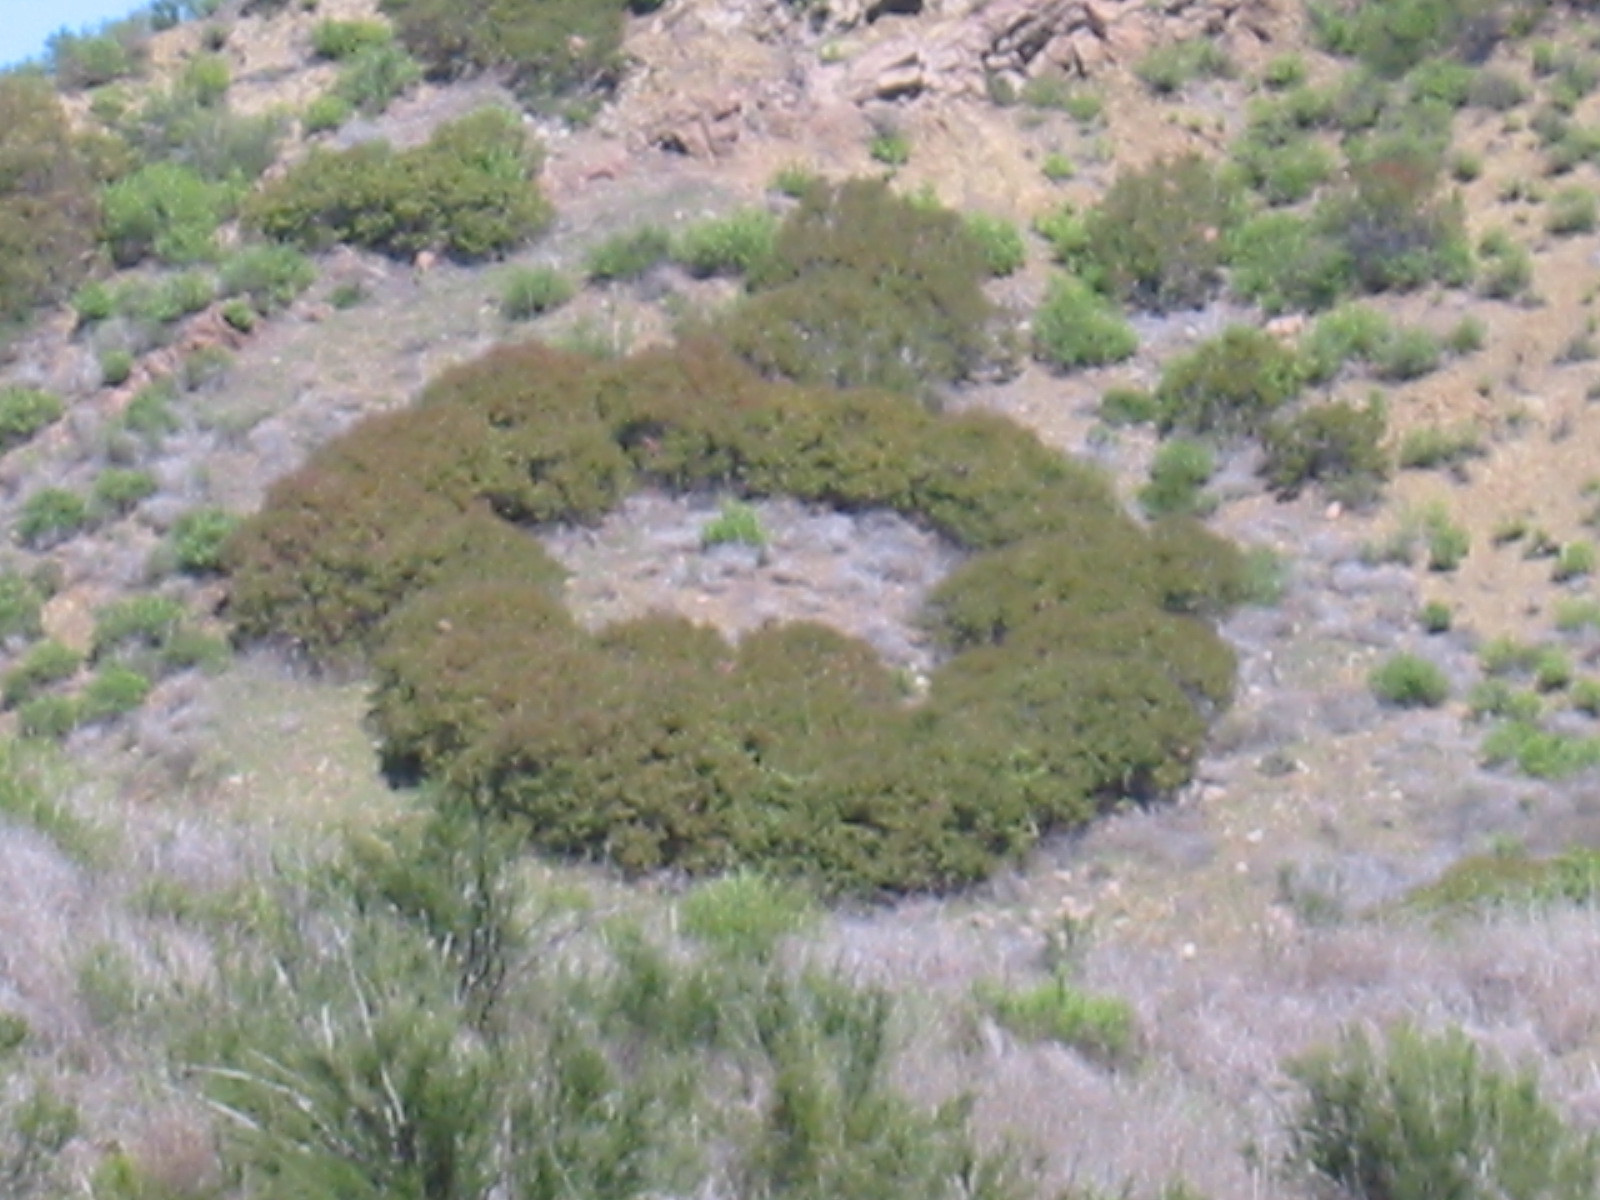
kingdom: Plantae
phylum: Tracheophyta
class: Magnoliopsida
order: Sapindales
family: Anacardiaceae
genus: Malosma
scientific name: Malosma laurina
